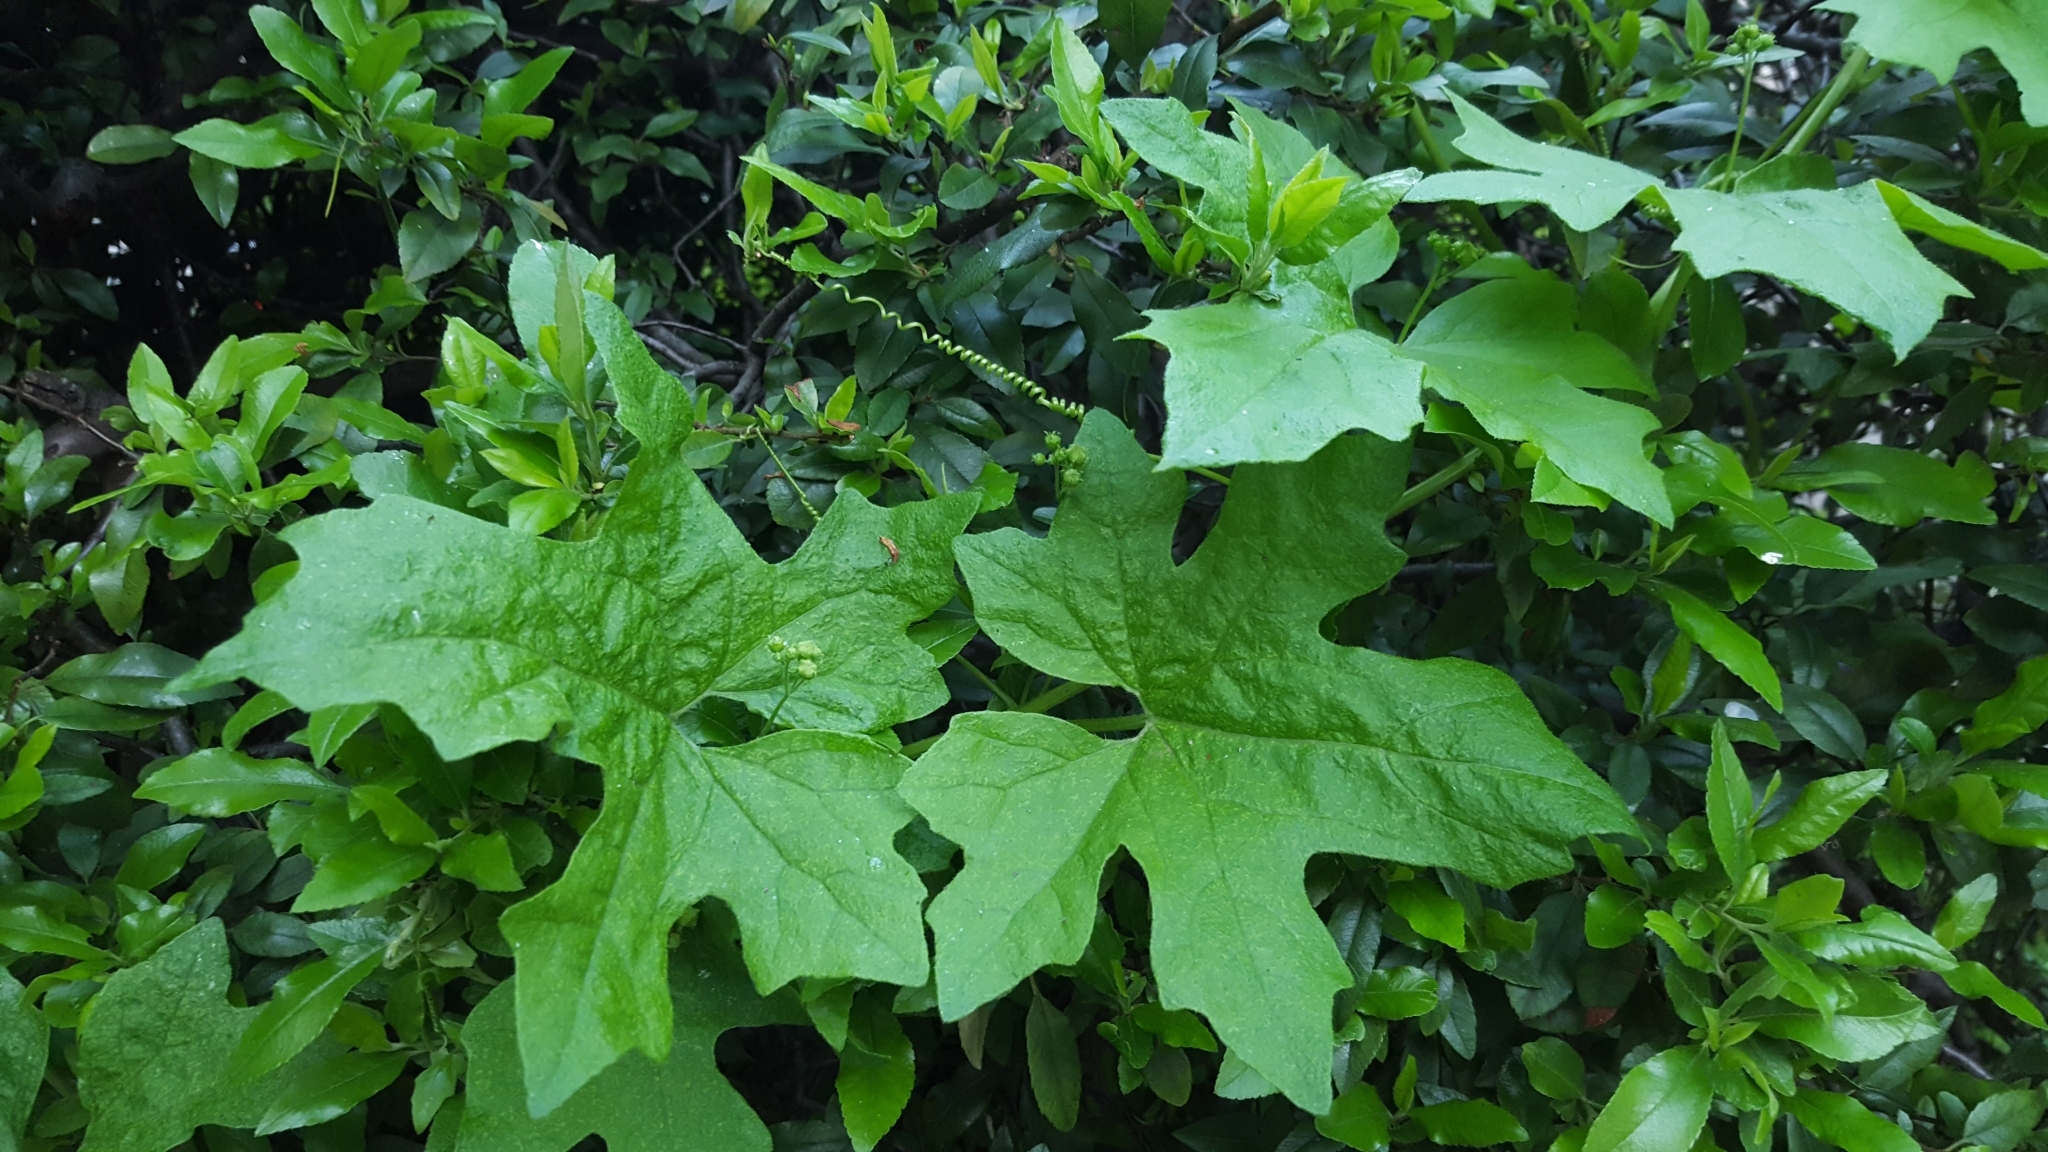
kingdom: Plantae
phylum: Tracheophyta
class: Magnoliopsida
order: Cucurbitales
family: Cucurbitaceae
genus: Bryonia
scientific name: Bryonia cretica
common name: Cretan bryony
